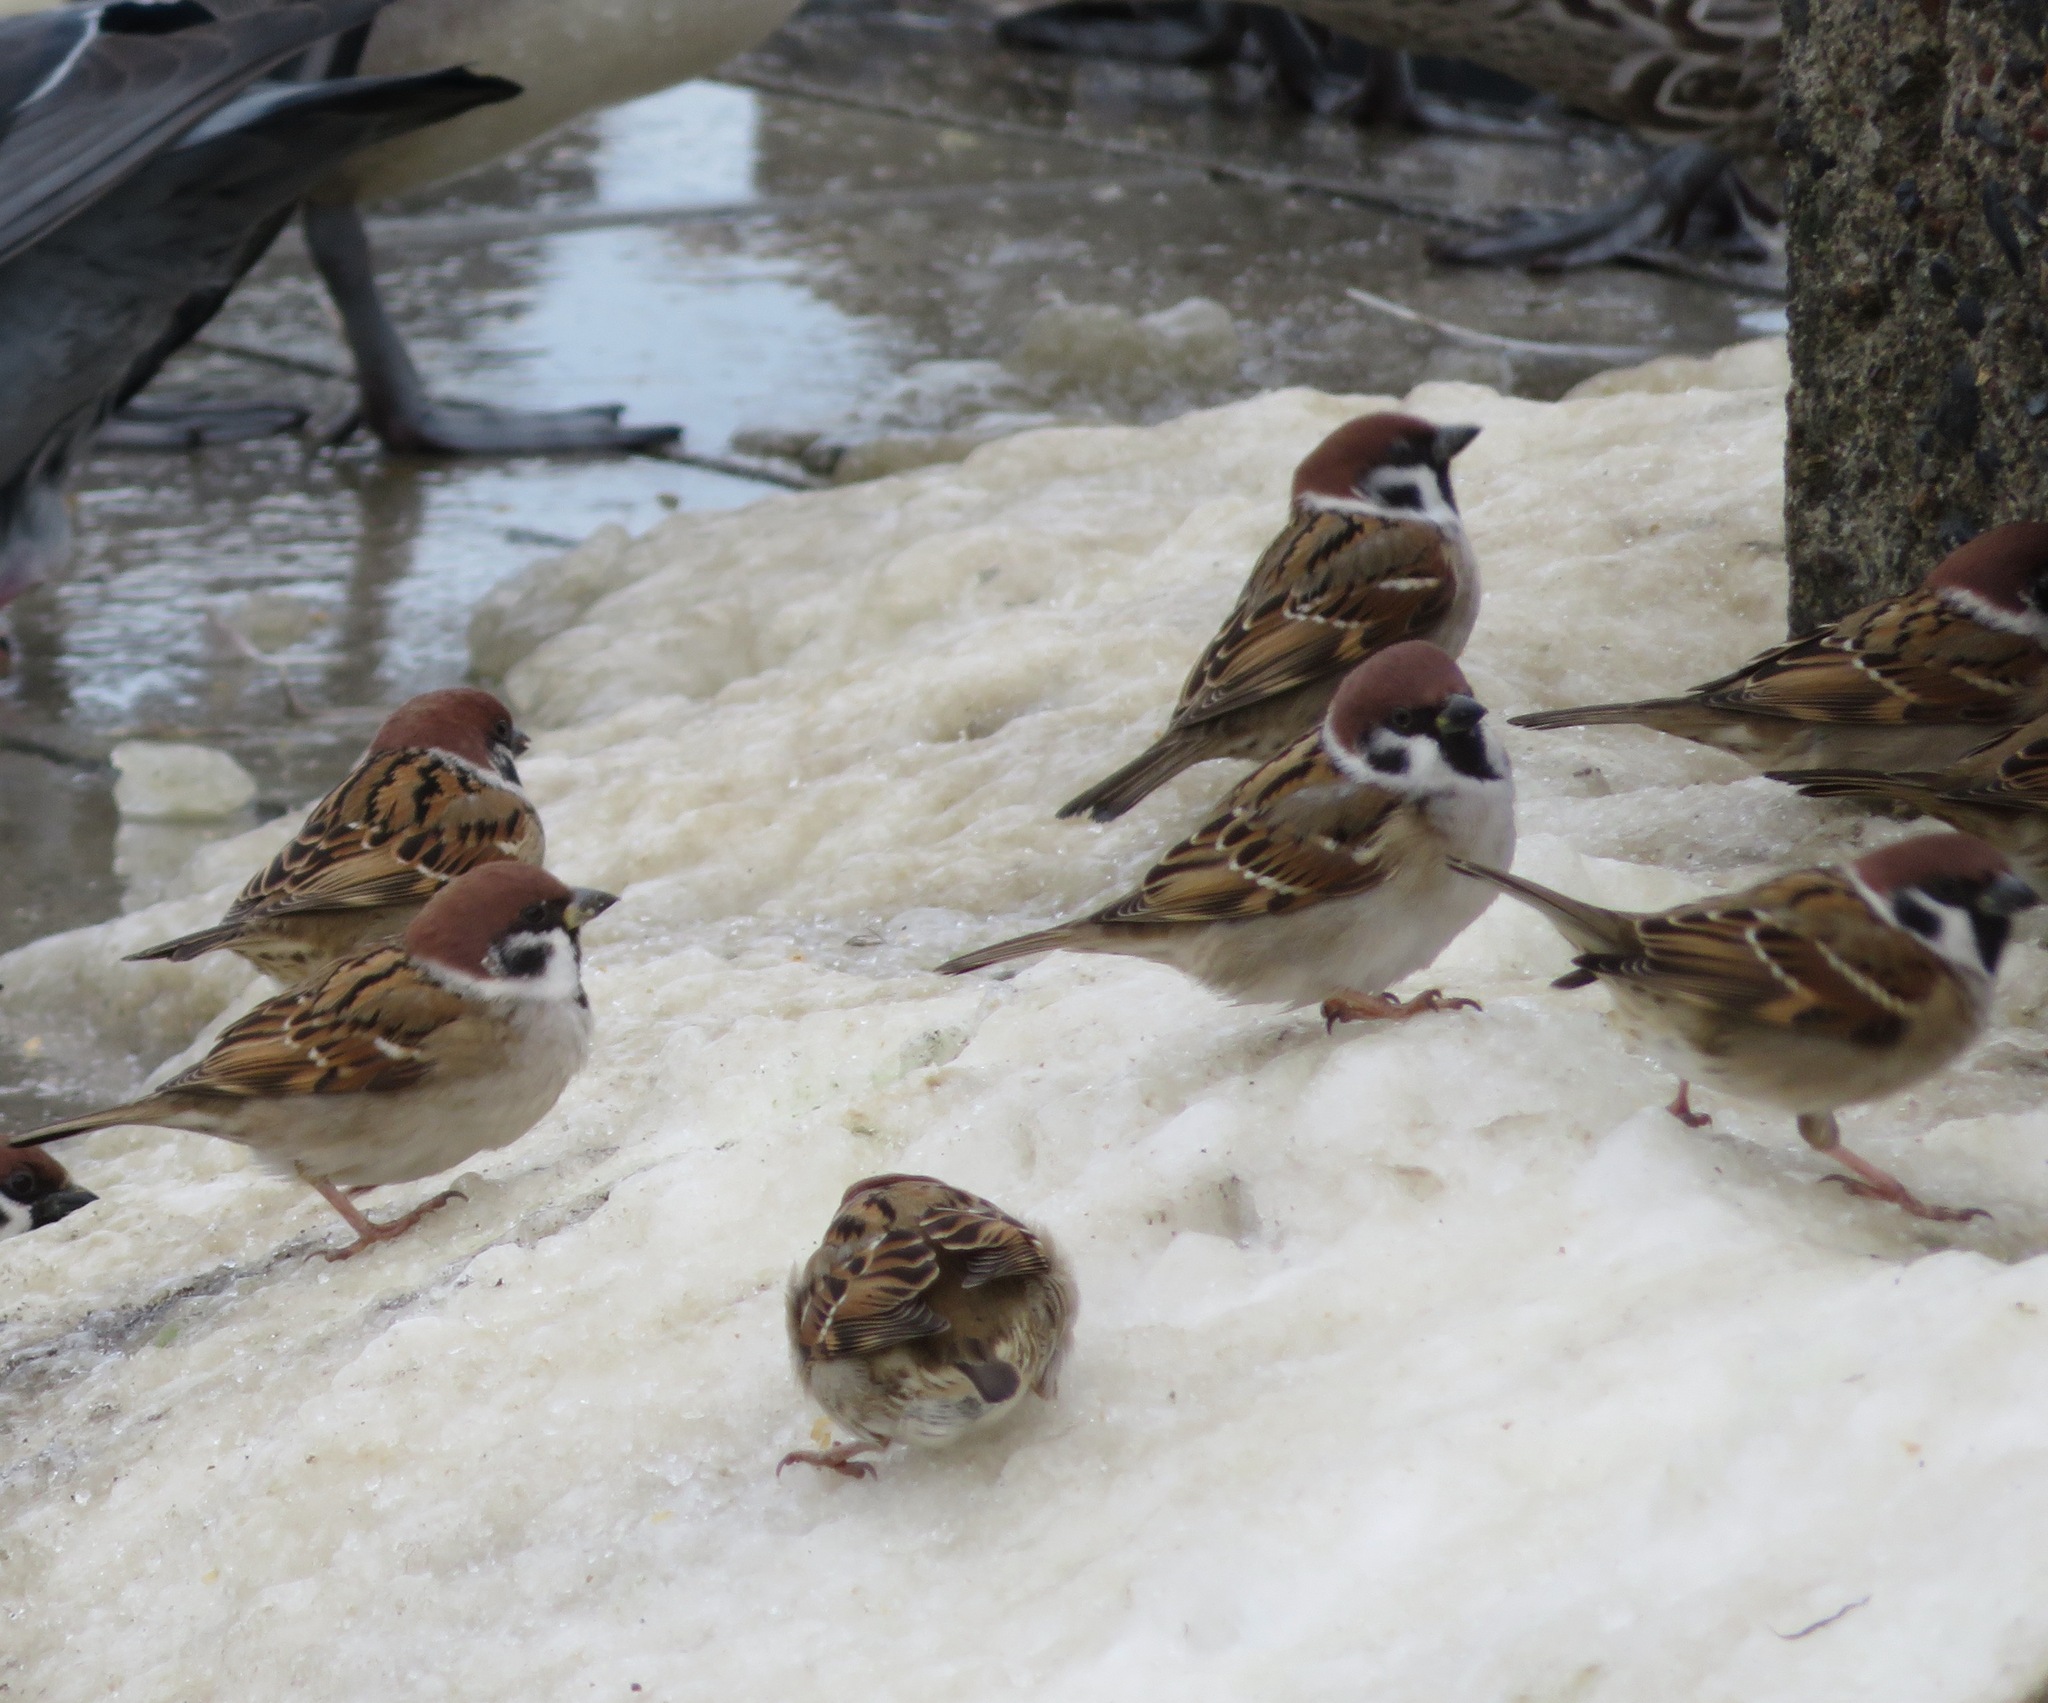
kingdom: Animalia
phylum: Chordata
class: Aves
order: Passeriformes
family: Passeridae
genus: Passer
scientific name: Passer montanus
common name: Eurasian tree sparrow
